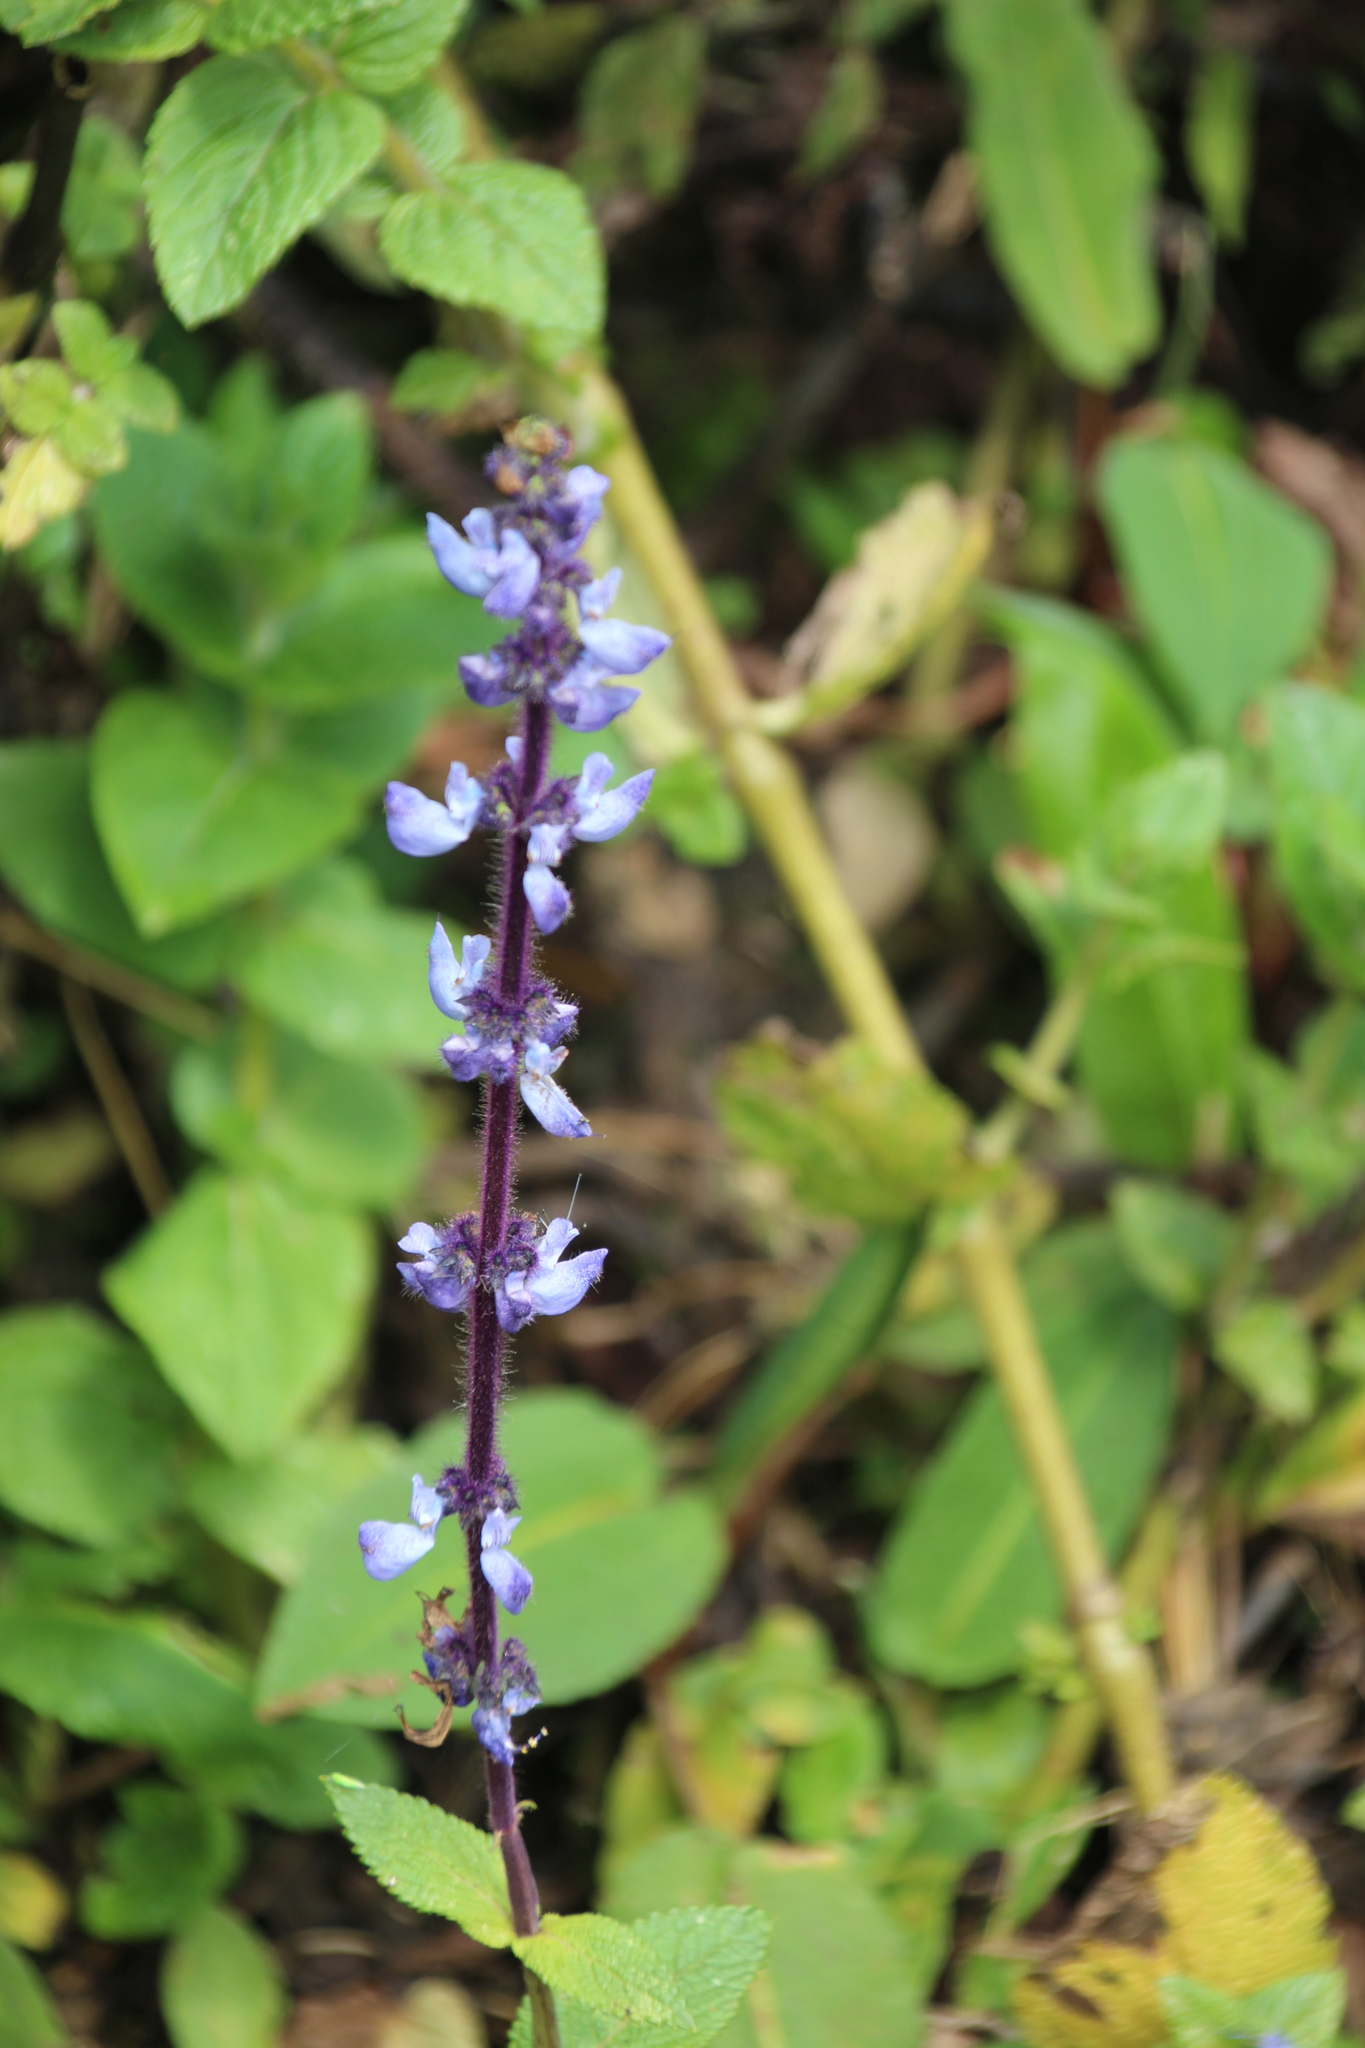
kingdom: Plantae
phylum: Tracheophyta
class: Magnoliopsida
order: Lamiales
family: Lamiaceae
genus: Coleus
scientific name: Coleus barbatus
